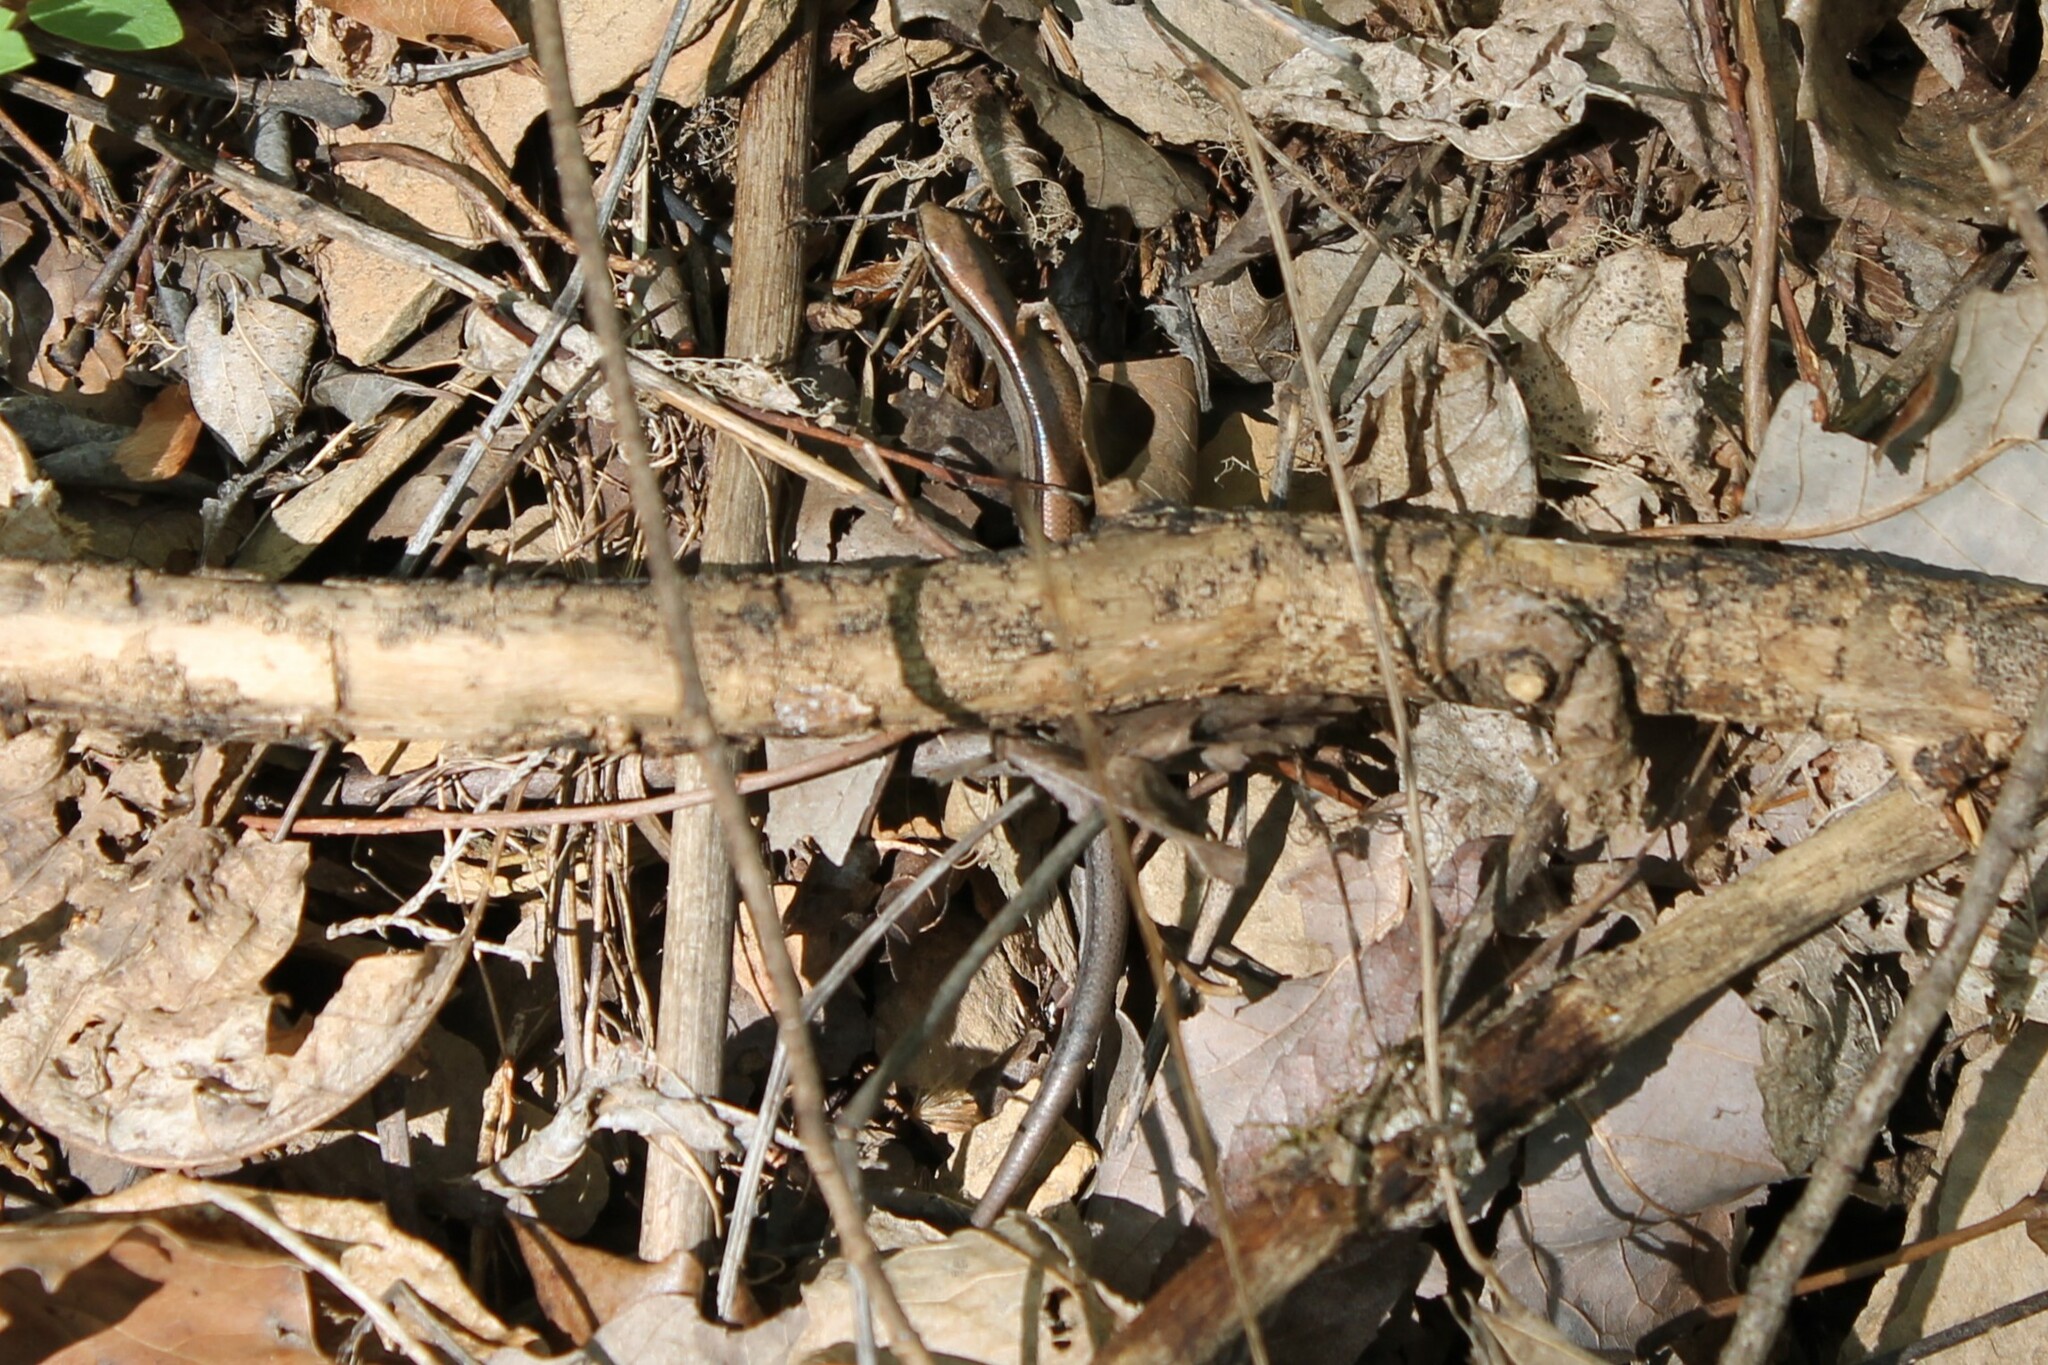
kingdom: Animalia
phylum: Chordata
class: Squamata
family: Scincidae
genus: Scincella
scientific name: Scincella lateralis
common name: Ground skink
